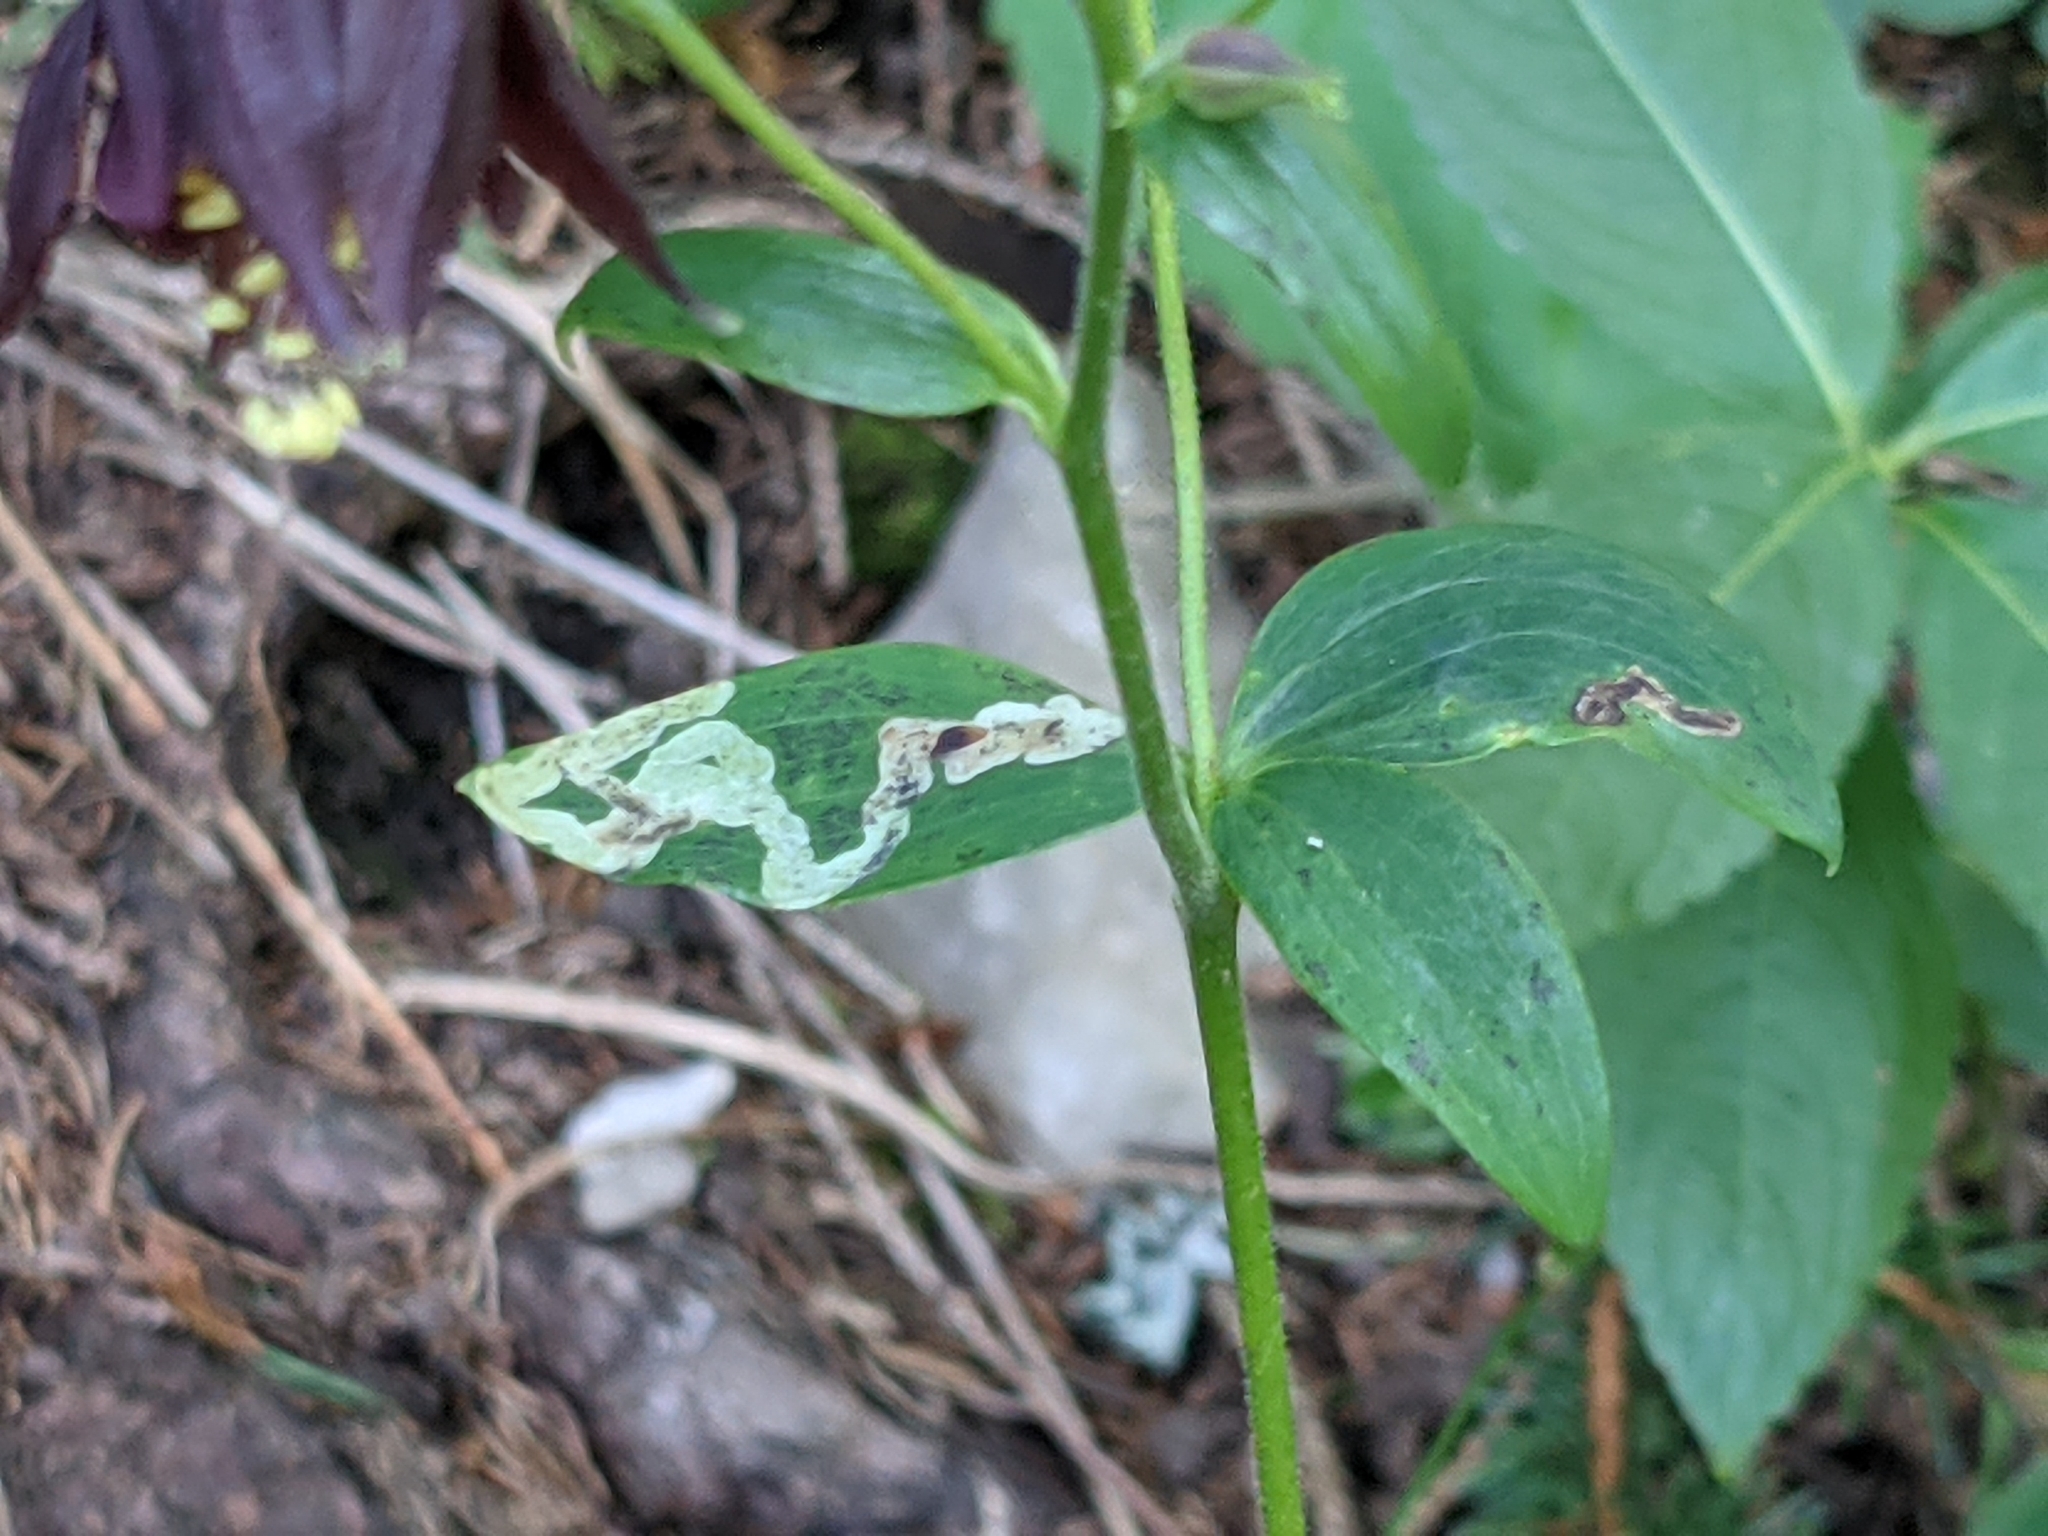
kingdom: Plantae
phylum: Tracheophyta
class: Magnoliopsida
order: Ranunculales
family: Ranunculaceae
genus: Aquilegia
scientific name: Aquilegia atrata
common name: Dark columbine
